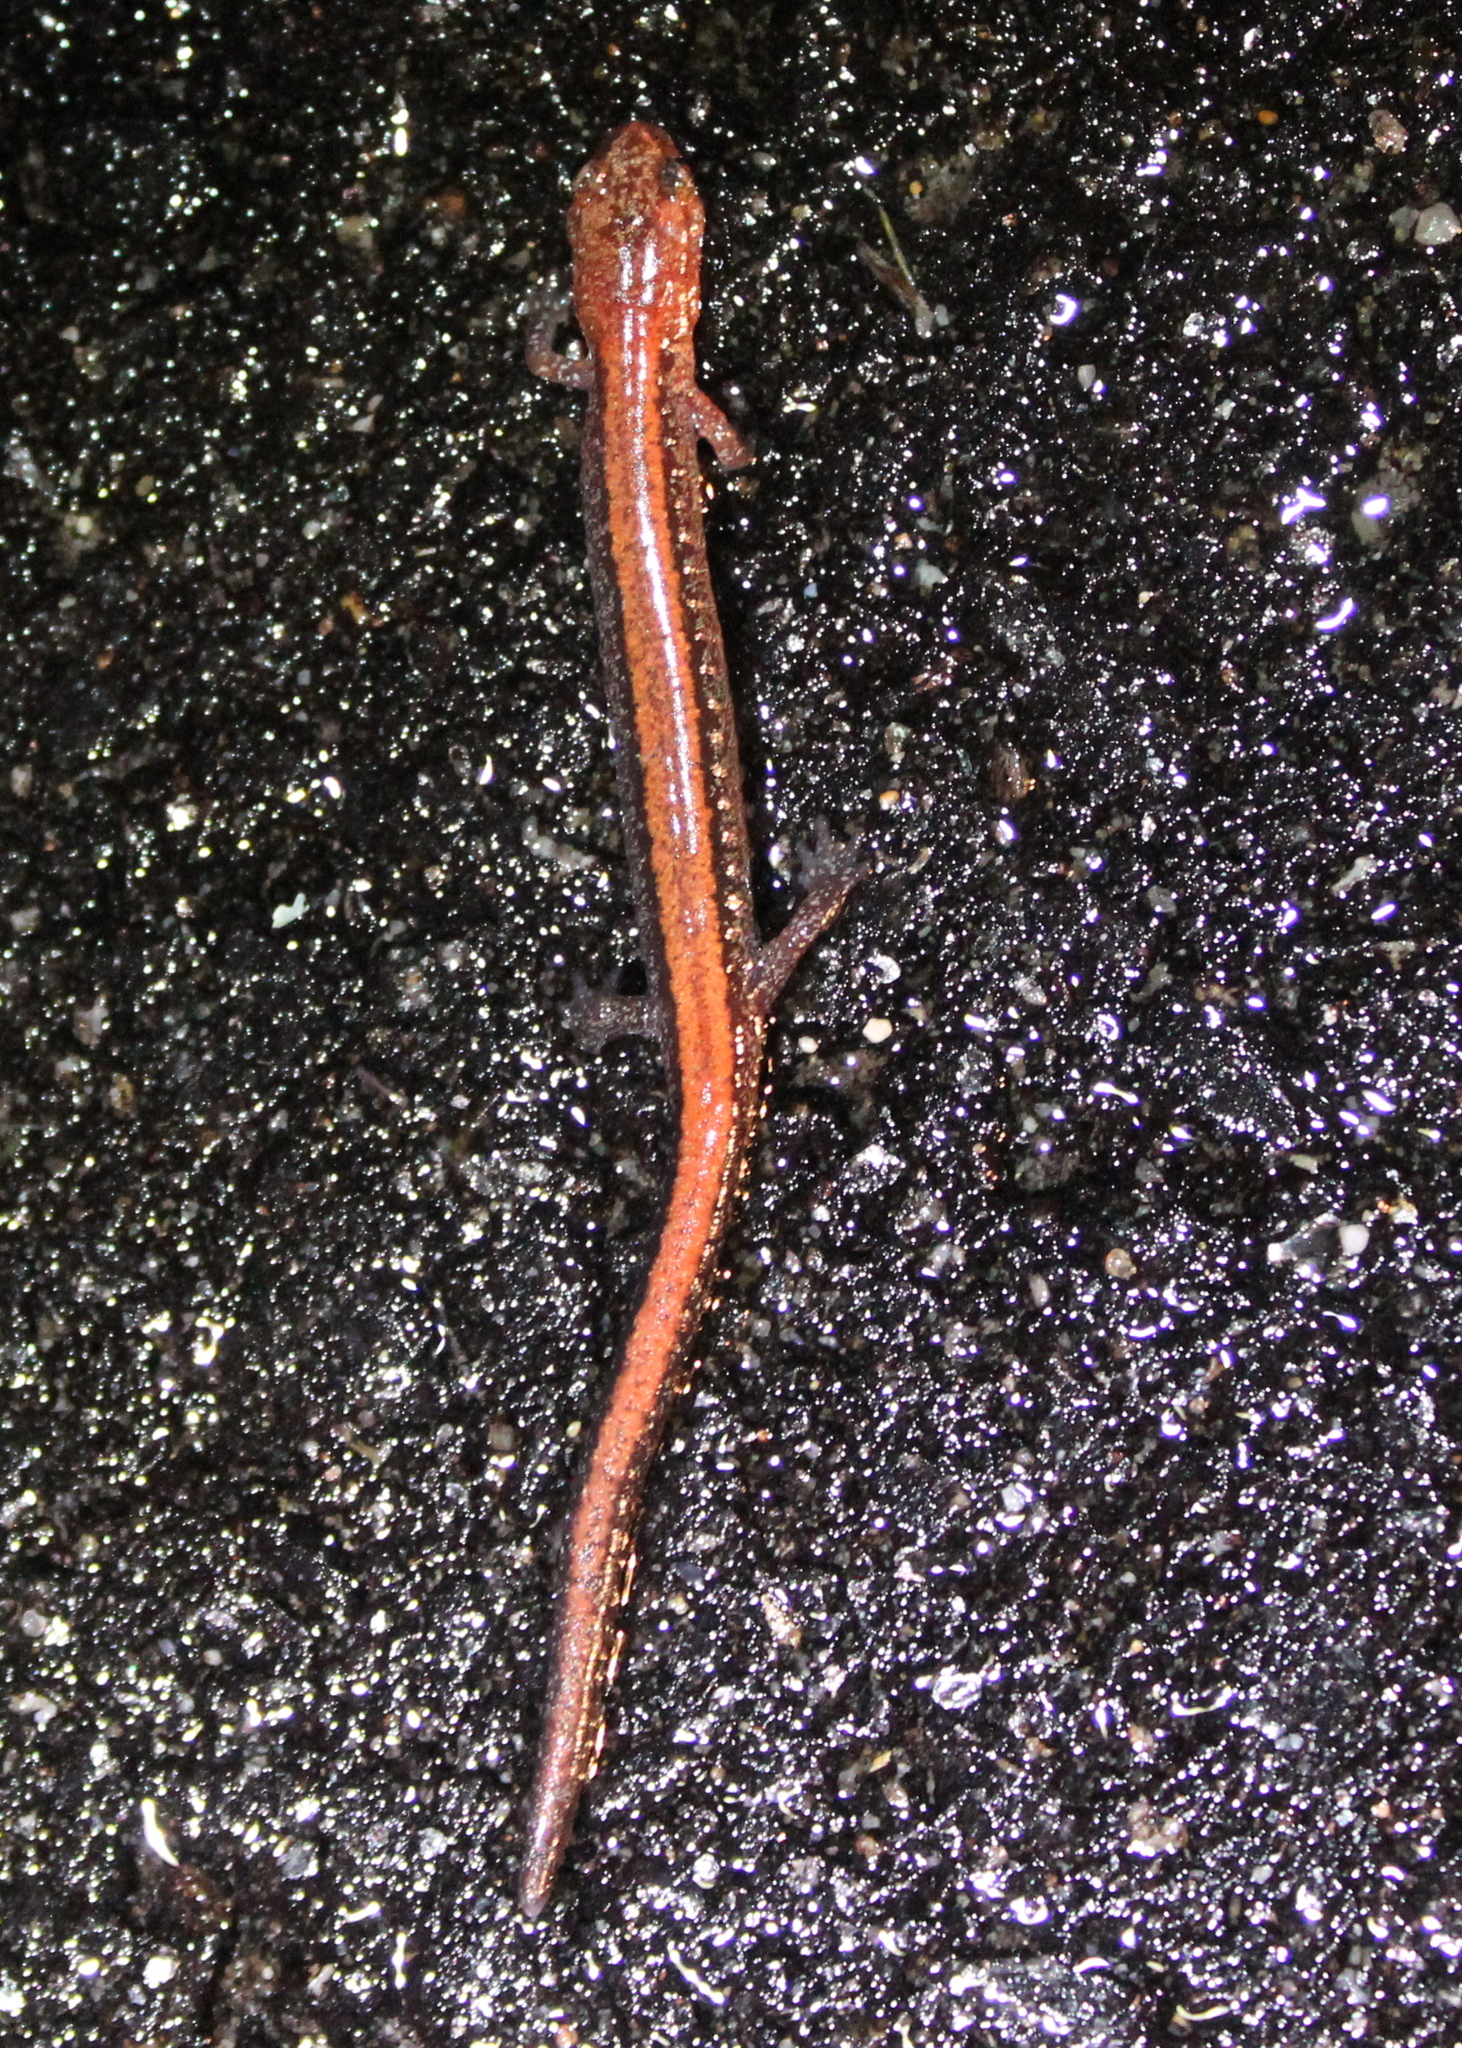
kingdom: Animalia
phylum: Chordata
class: Amphibia
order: Caudata
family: Plethodontidae
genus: Plethodon
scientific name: Plethodon cinereus
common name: Redback salamander
